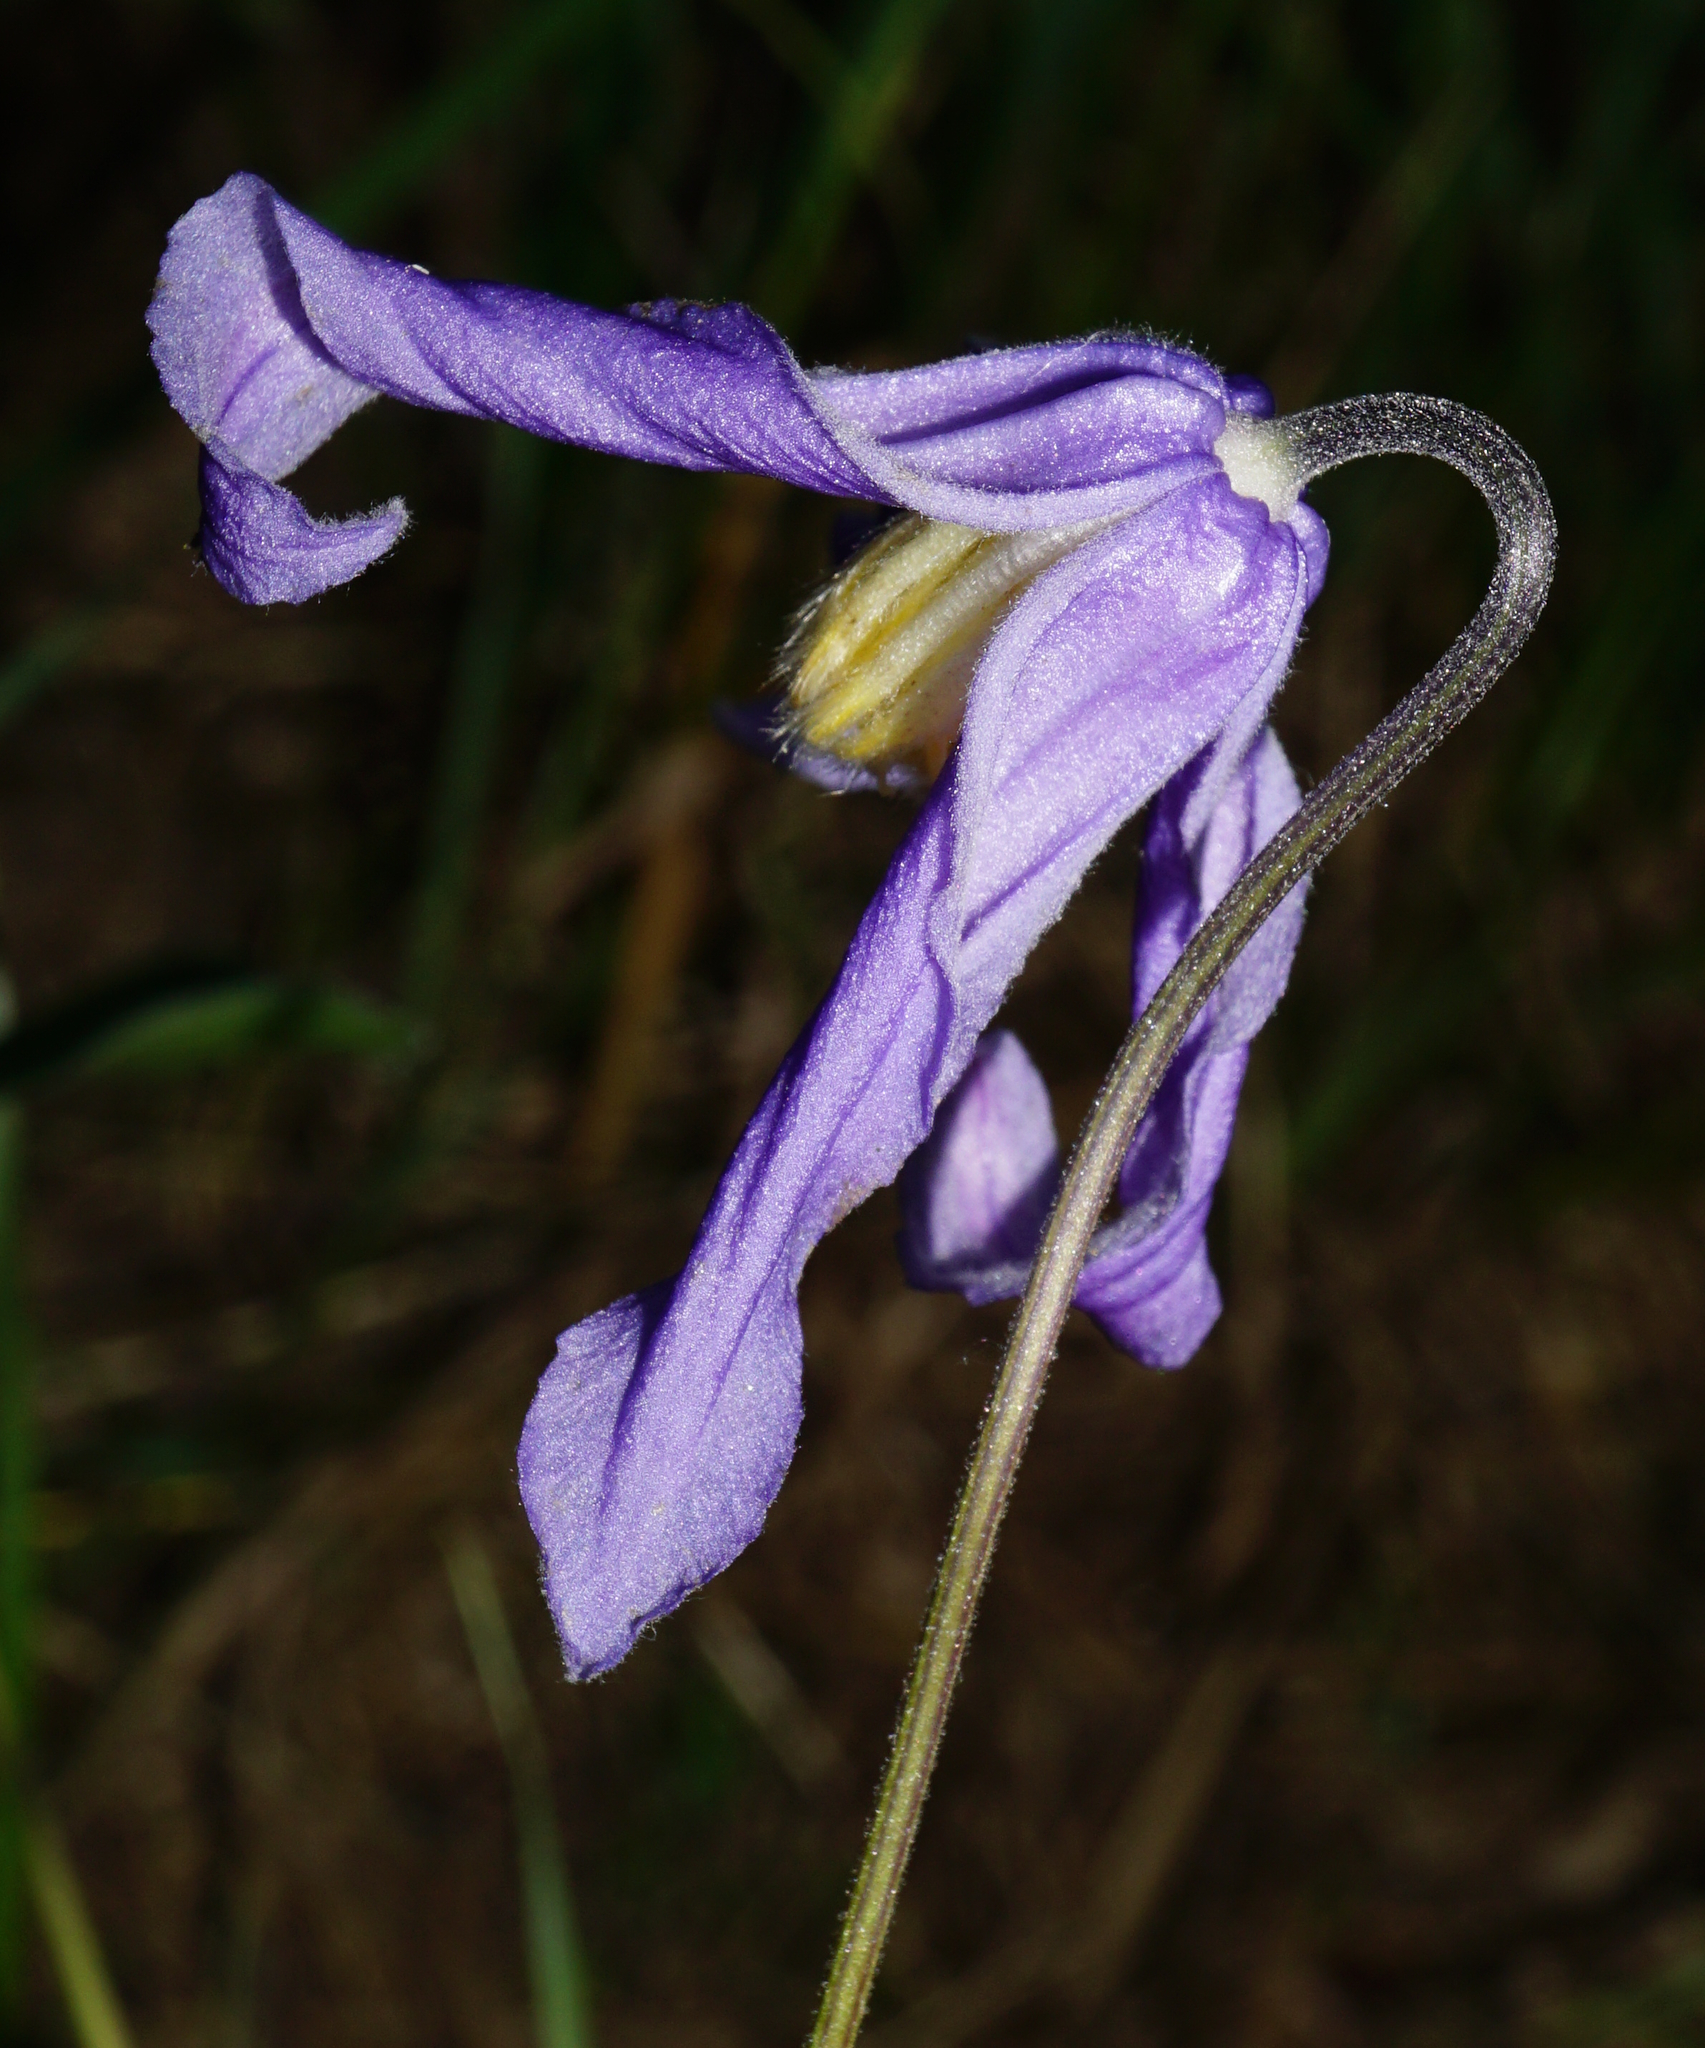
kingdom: Plantae
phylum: Tracheophyta
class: Magnoliopsida
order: Ranunculales
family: Ranunculaceae
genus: Clematis
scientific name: Clematis integrifolia
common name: Solitary clematis
